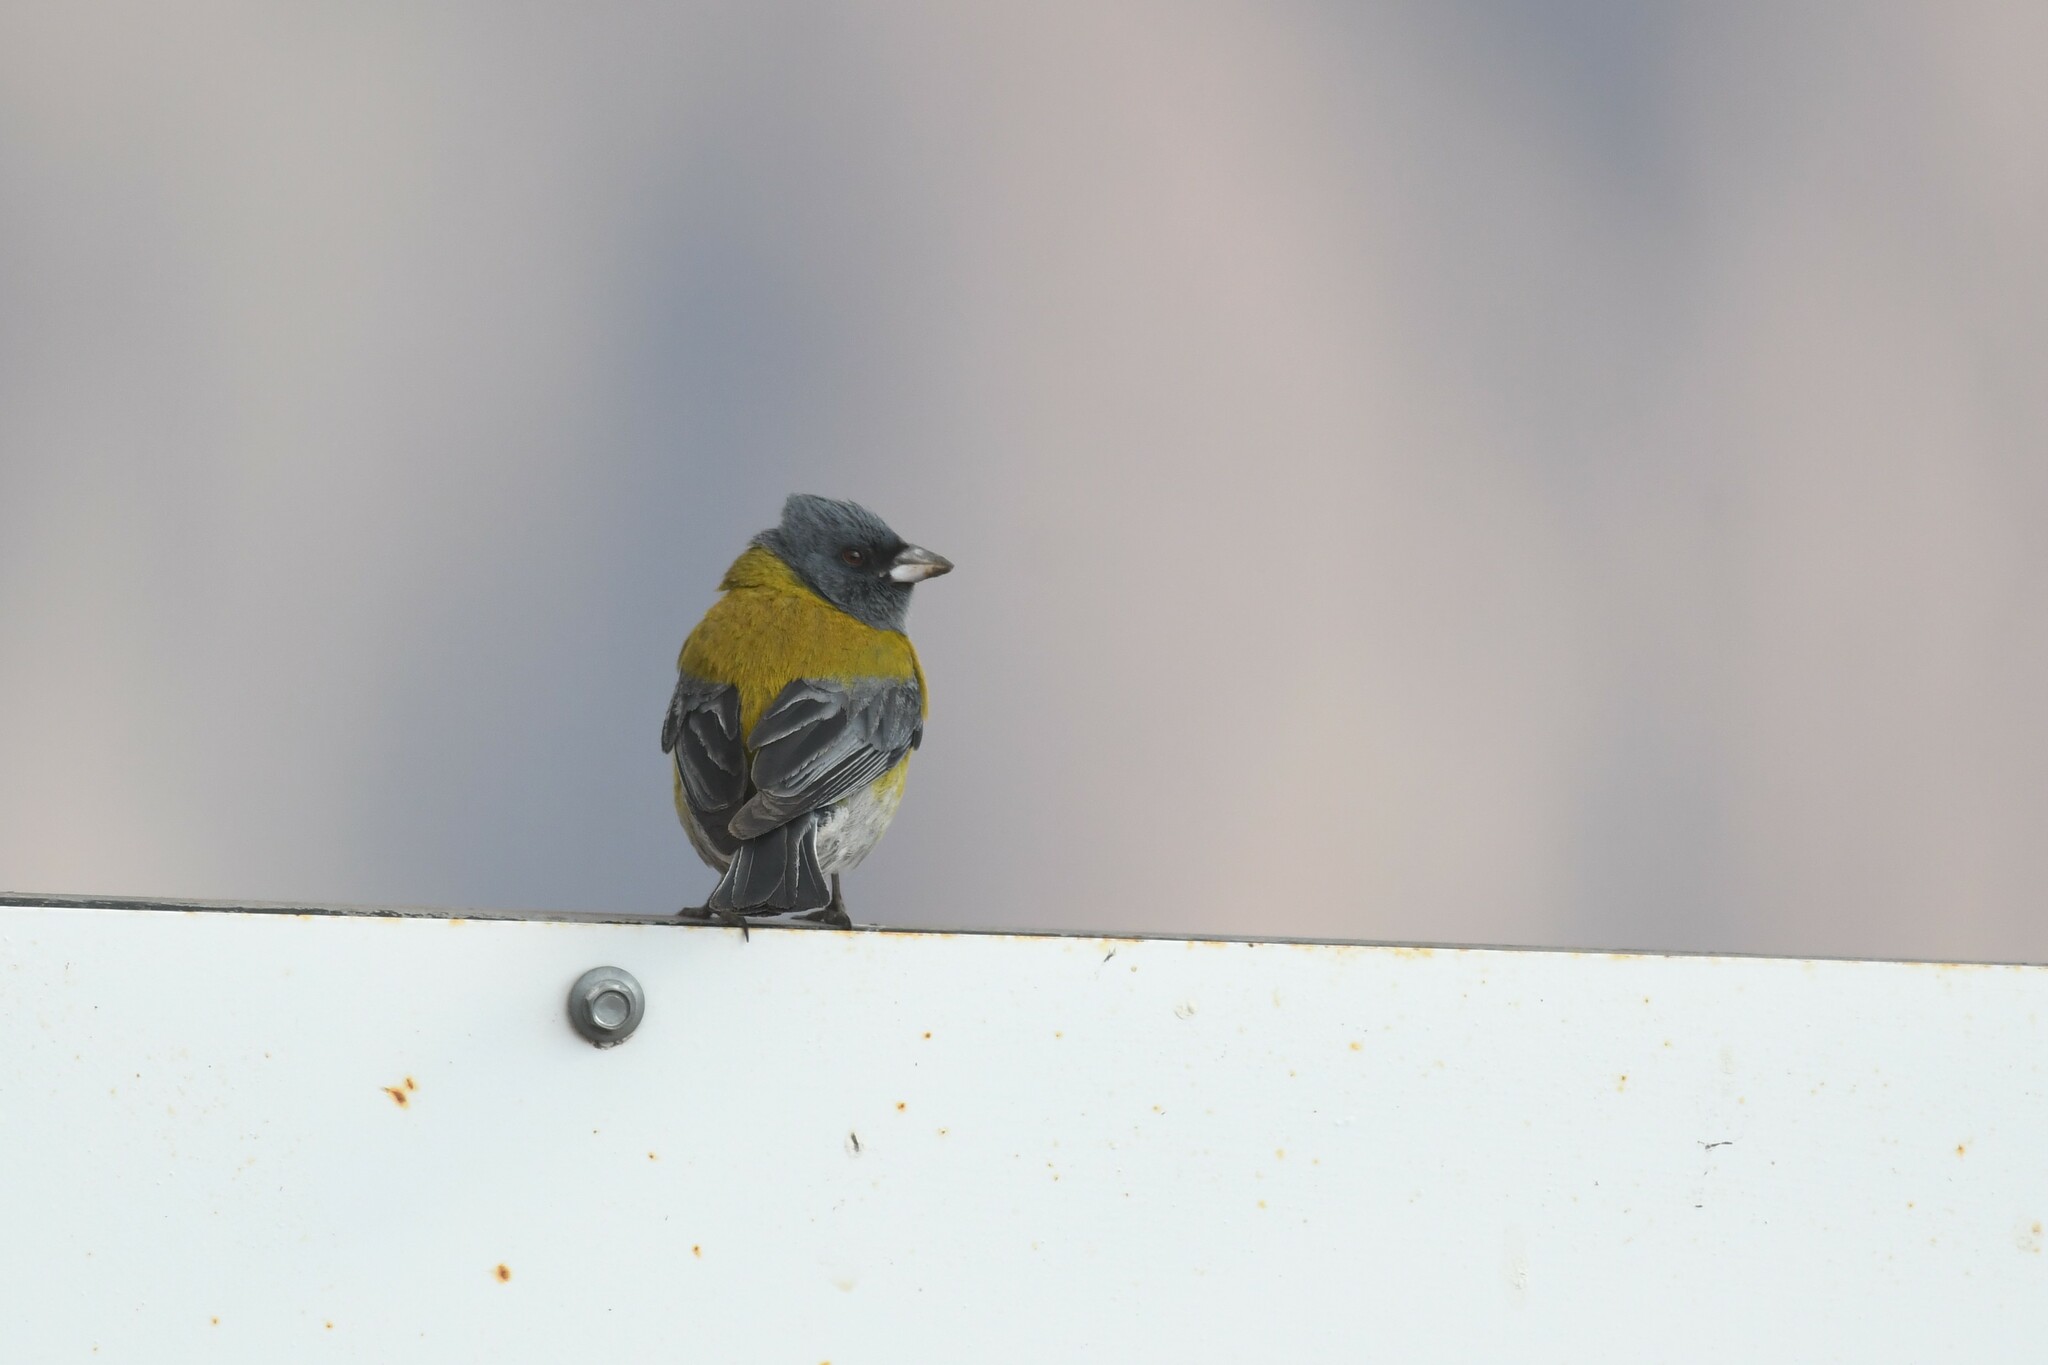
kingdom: Animalia
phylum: Chordata
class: Aves
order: Passeriformes
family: Thraupidae
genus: Phrygilus
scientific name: Phrygilus gayi
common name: Grey-hooded sierra finch
